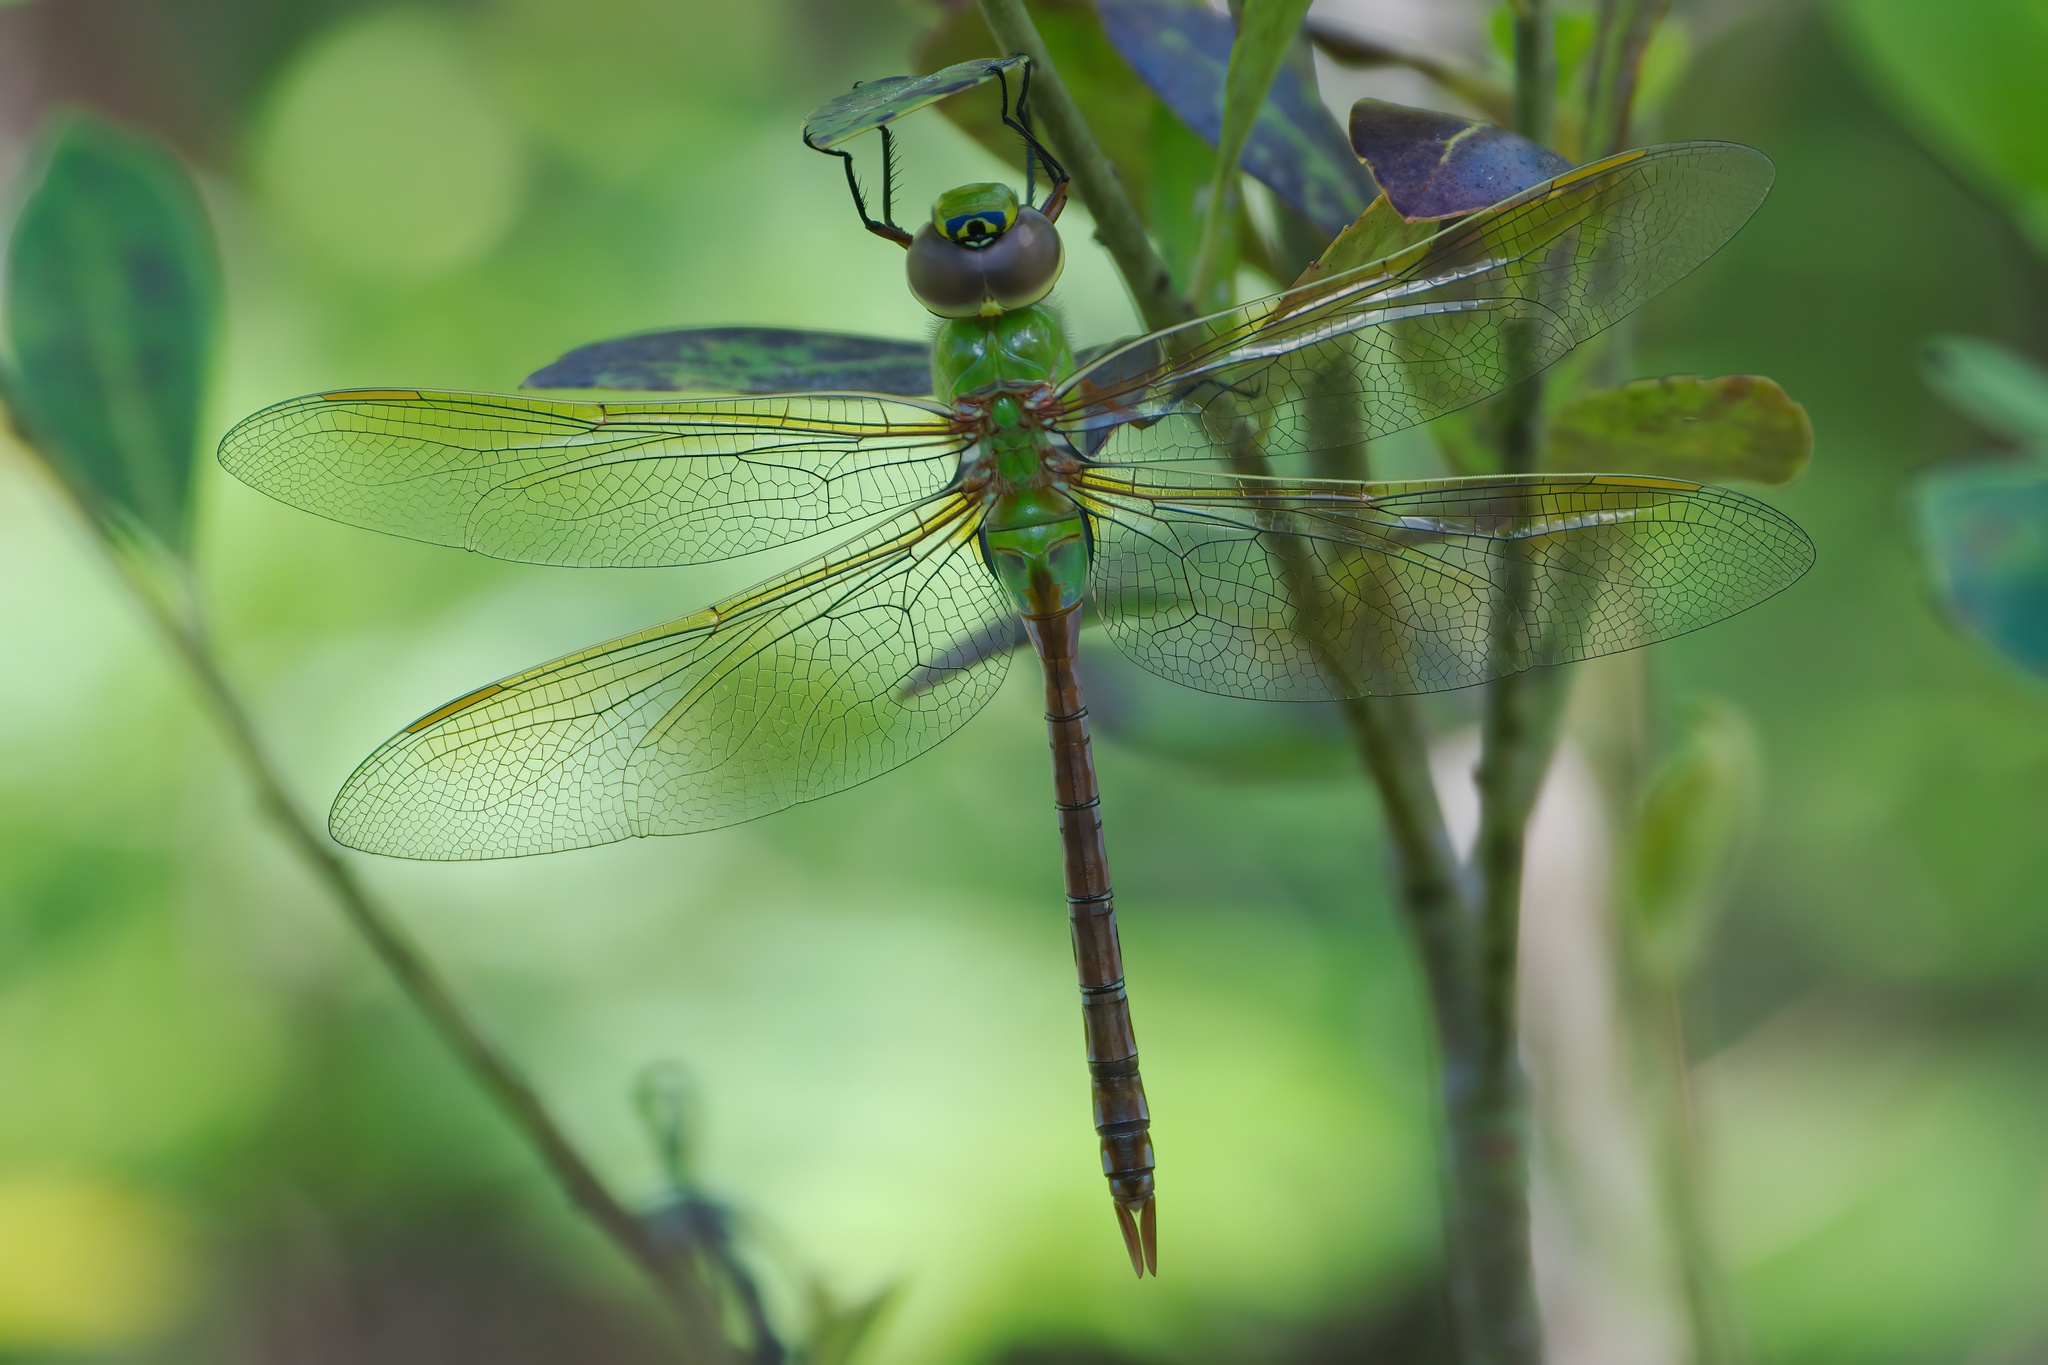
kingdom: Animalia
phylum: Arthropoda
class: Insecta
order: Odonata
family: Aeshnidae
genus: Anax
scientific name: Anax junius
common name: Common green darner
